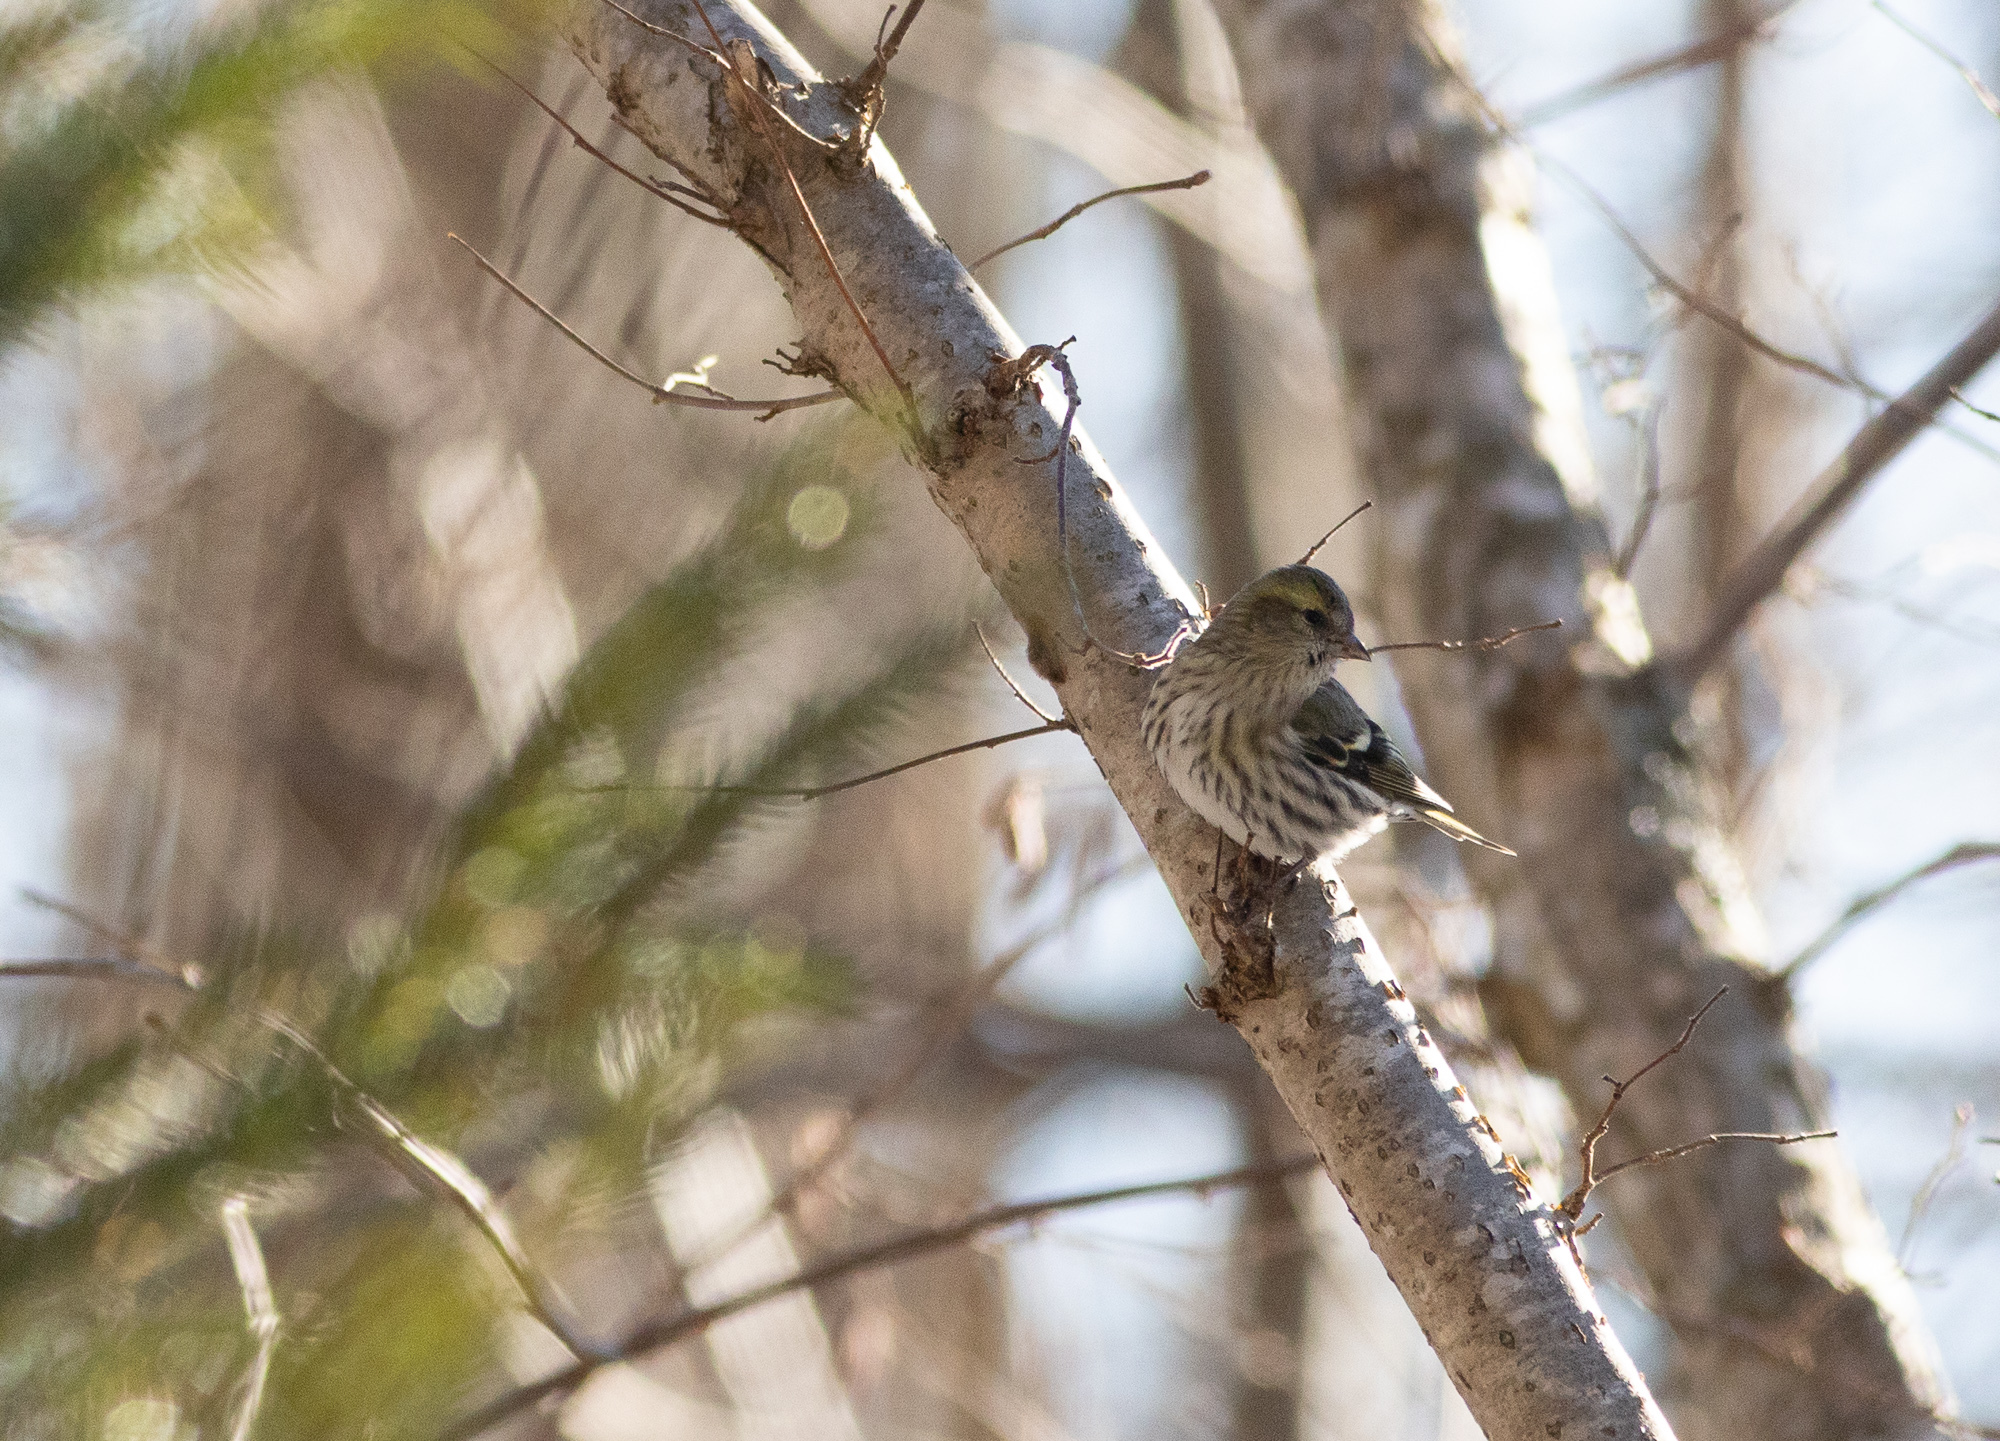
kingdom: Animalia
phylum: Chordata
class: Aves
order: Passeriformes
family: Fringillidae
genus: Spinus
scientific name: Spinus spinus
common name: Eurasian siskin
